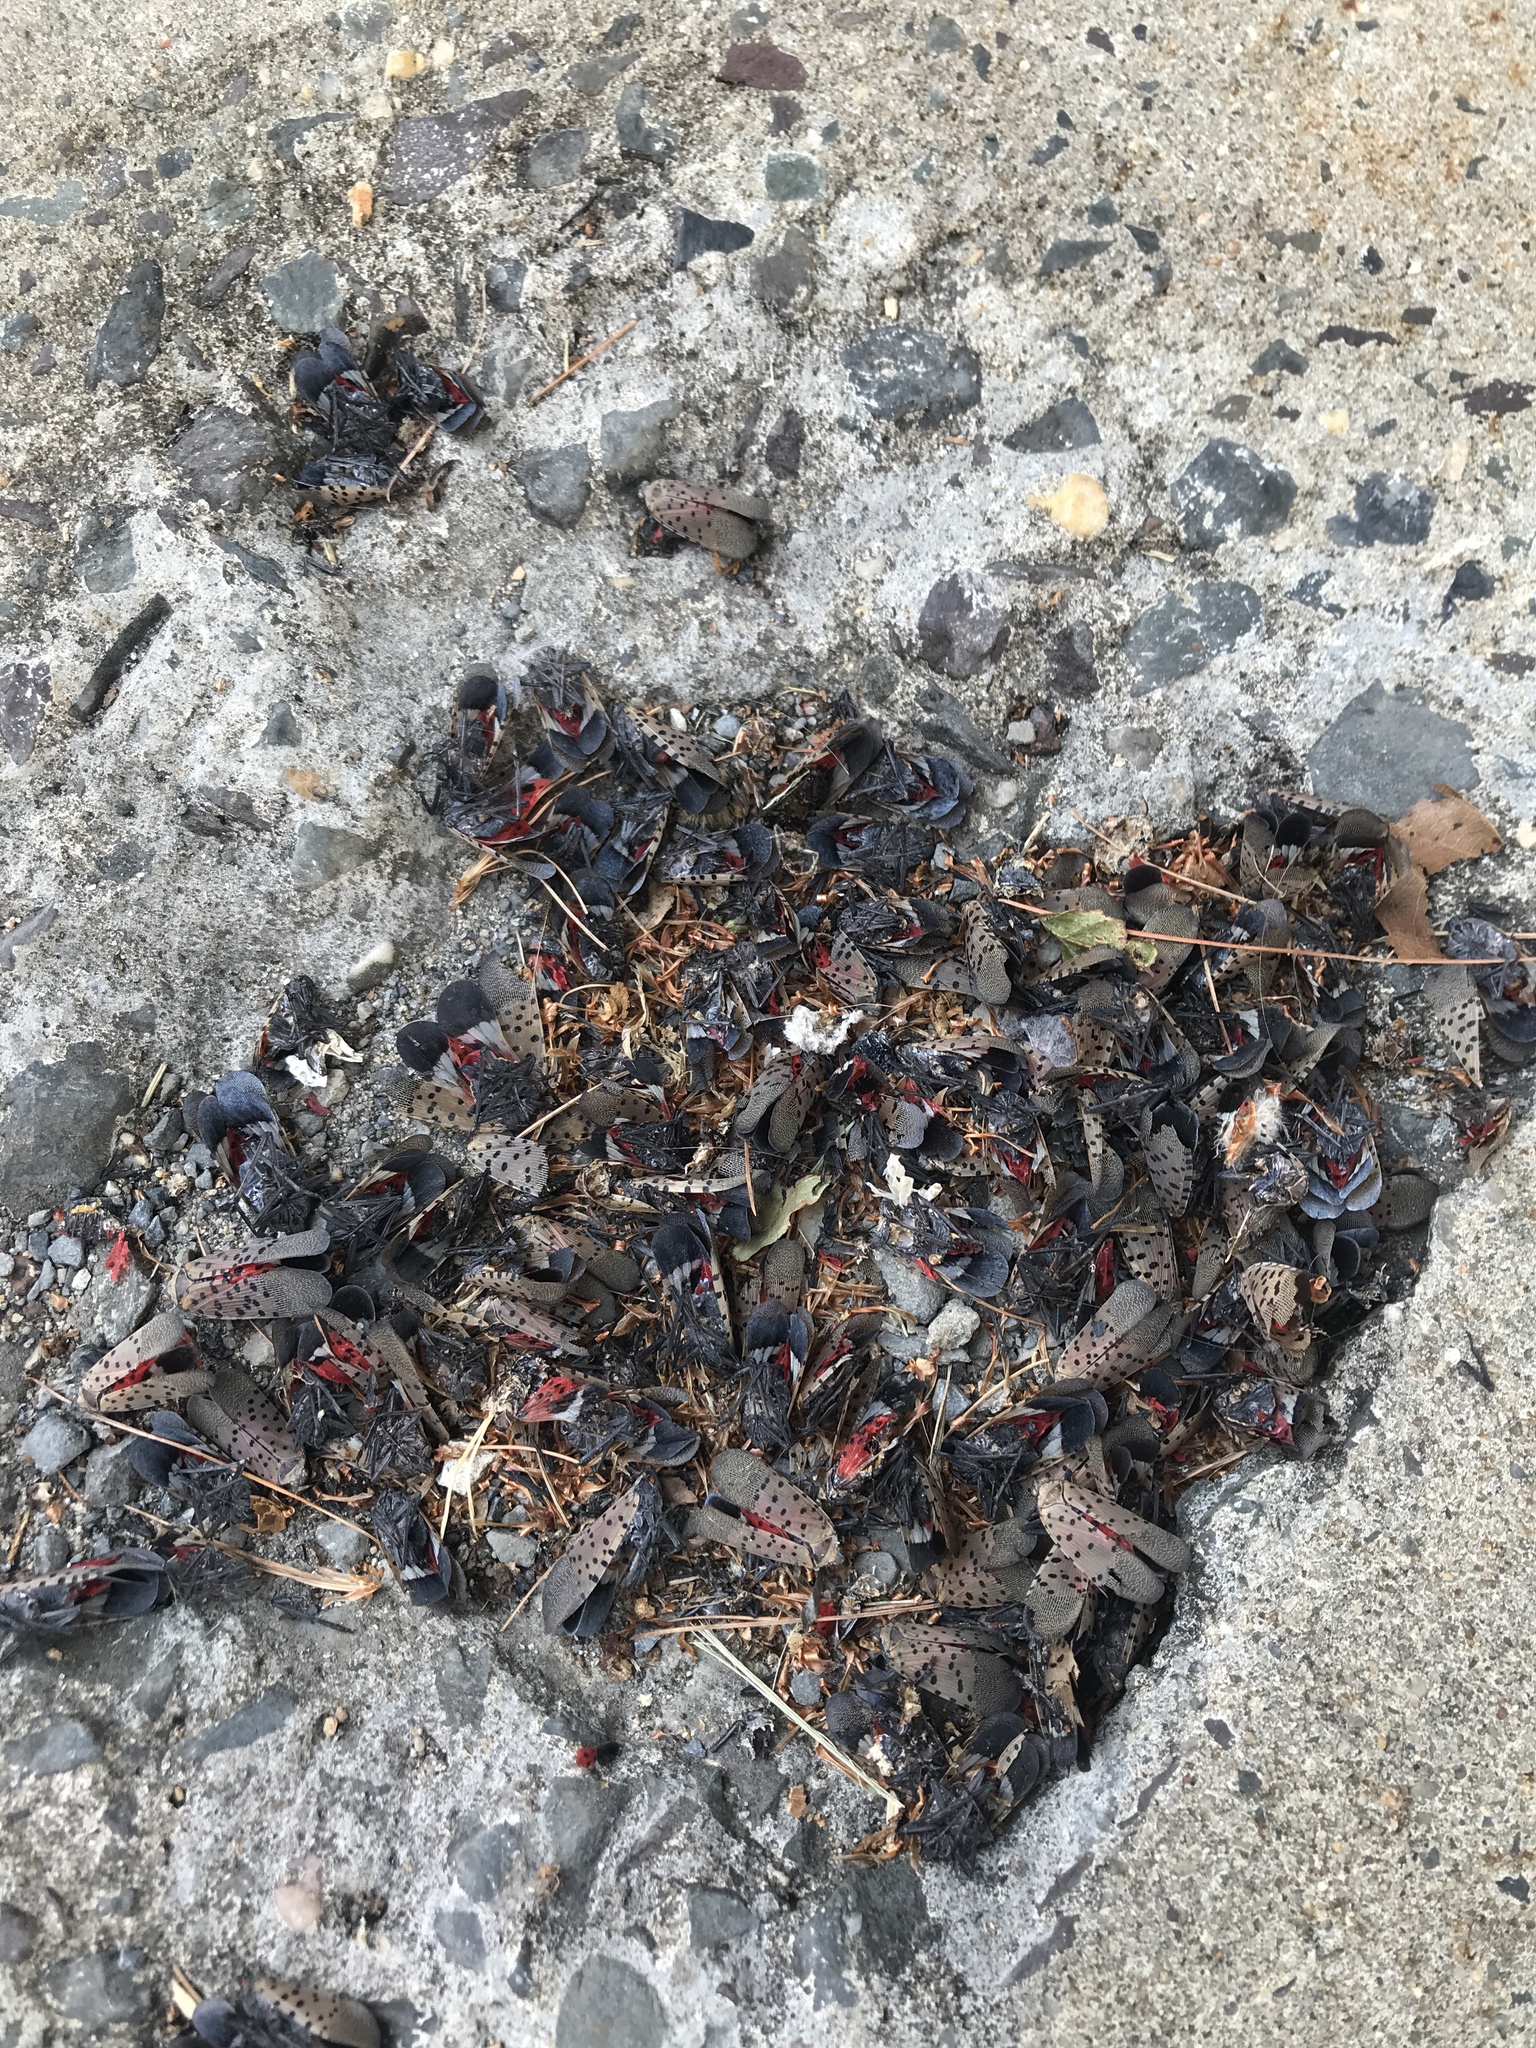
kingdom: Animalia
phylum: Arthropoda
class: Insecta
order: Hemiptera
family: Fulgoridae
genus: Lycorma
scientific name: Lycorma delicatula
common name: Spotted lanternfly
